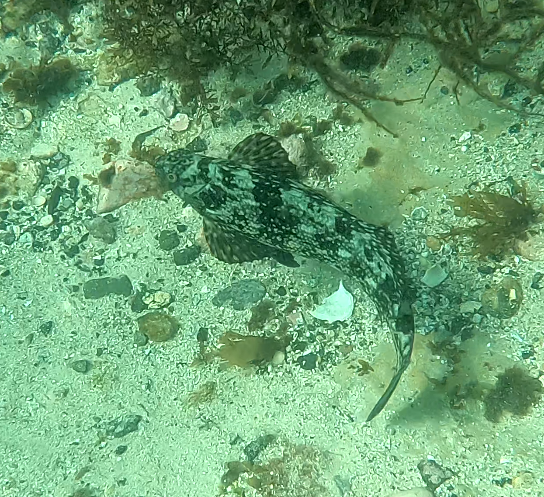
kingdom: Animalia
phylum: Chordata
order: Perciformes
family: Aplodactylidae
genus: Aplodactylus
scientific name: Aplodactylus lophodon
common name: Cockatoo fish
